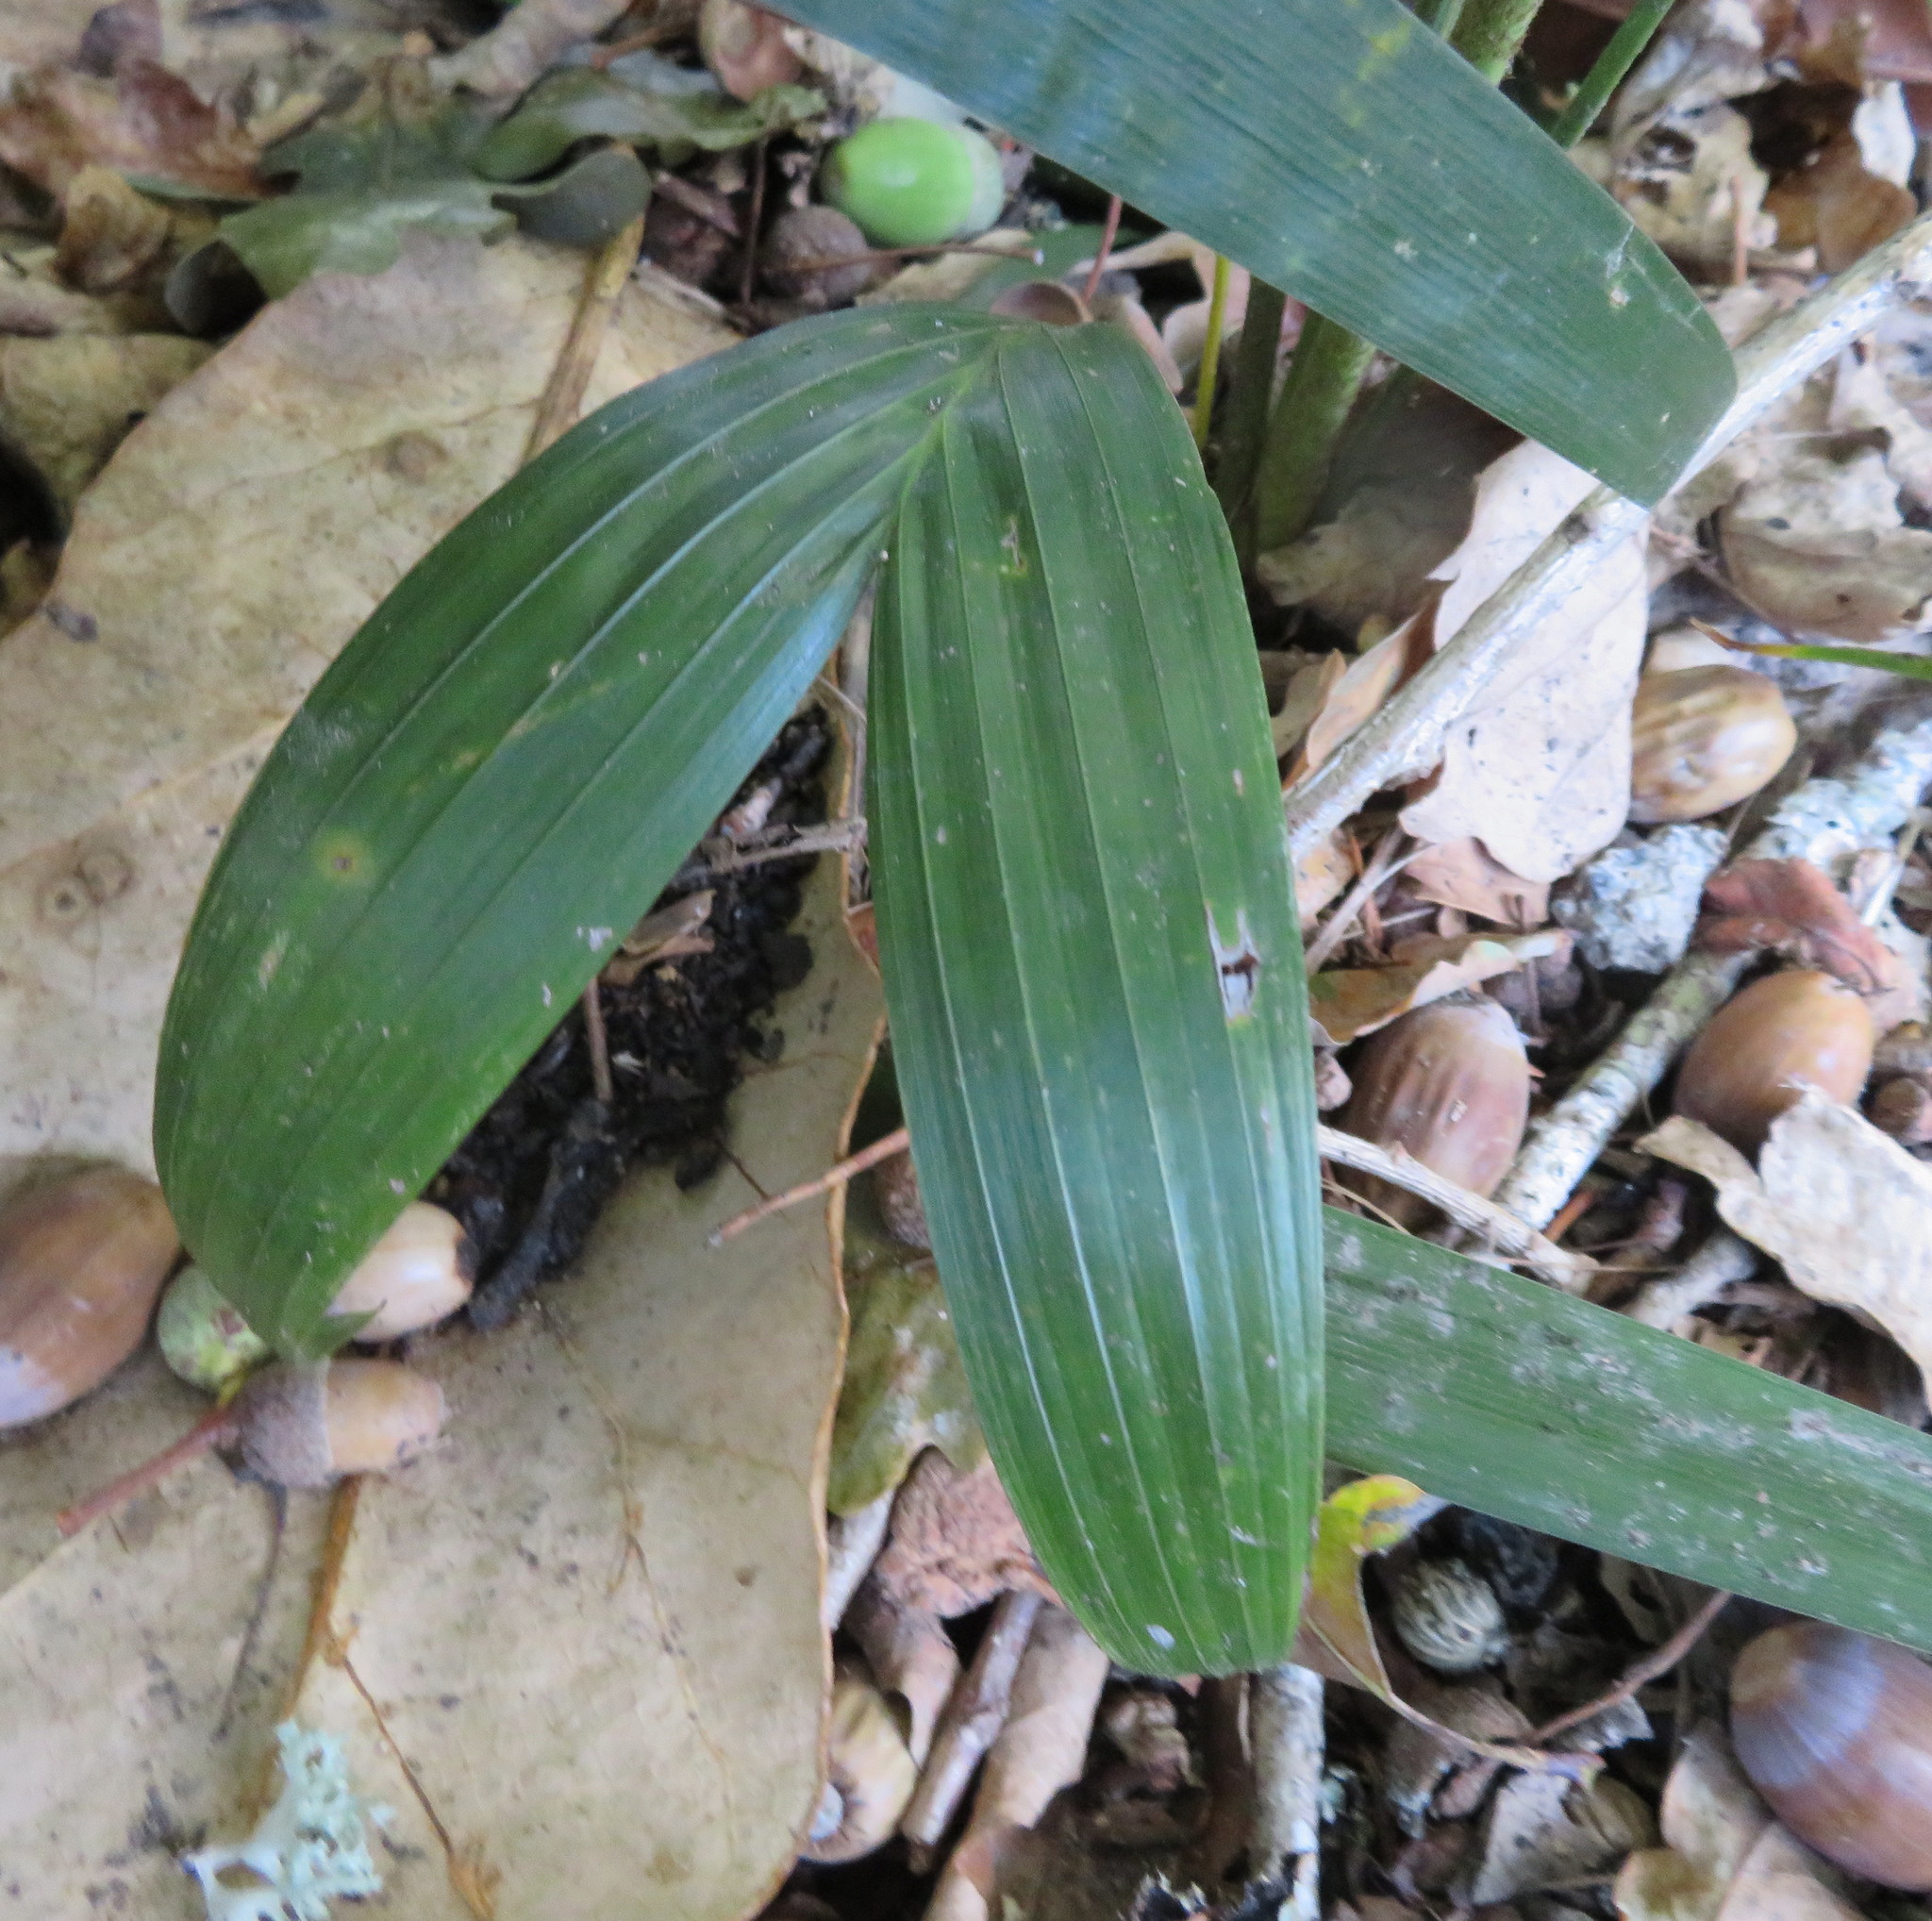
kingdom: Plantae
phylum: Tracheophyta
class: Liliopsida
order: Arecales
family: Arecaceae
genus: Archontophoenix
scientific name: Archontophoenix cunninghamiana
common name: Piccabeen bangalow palm
